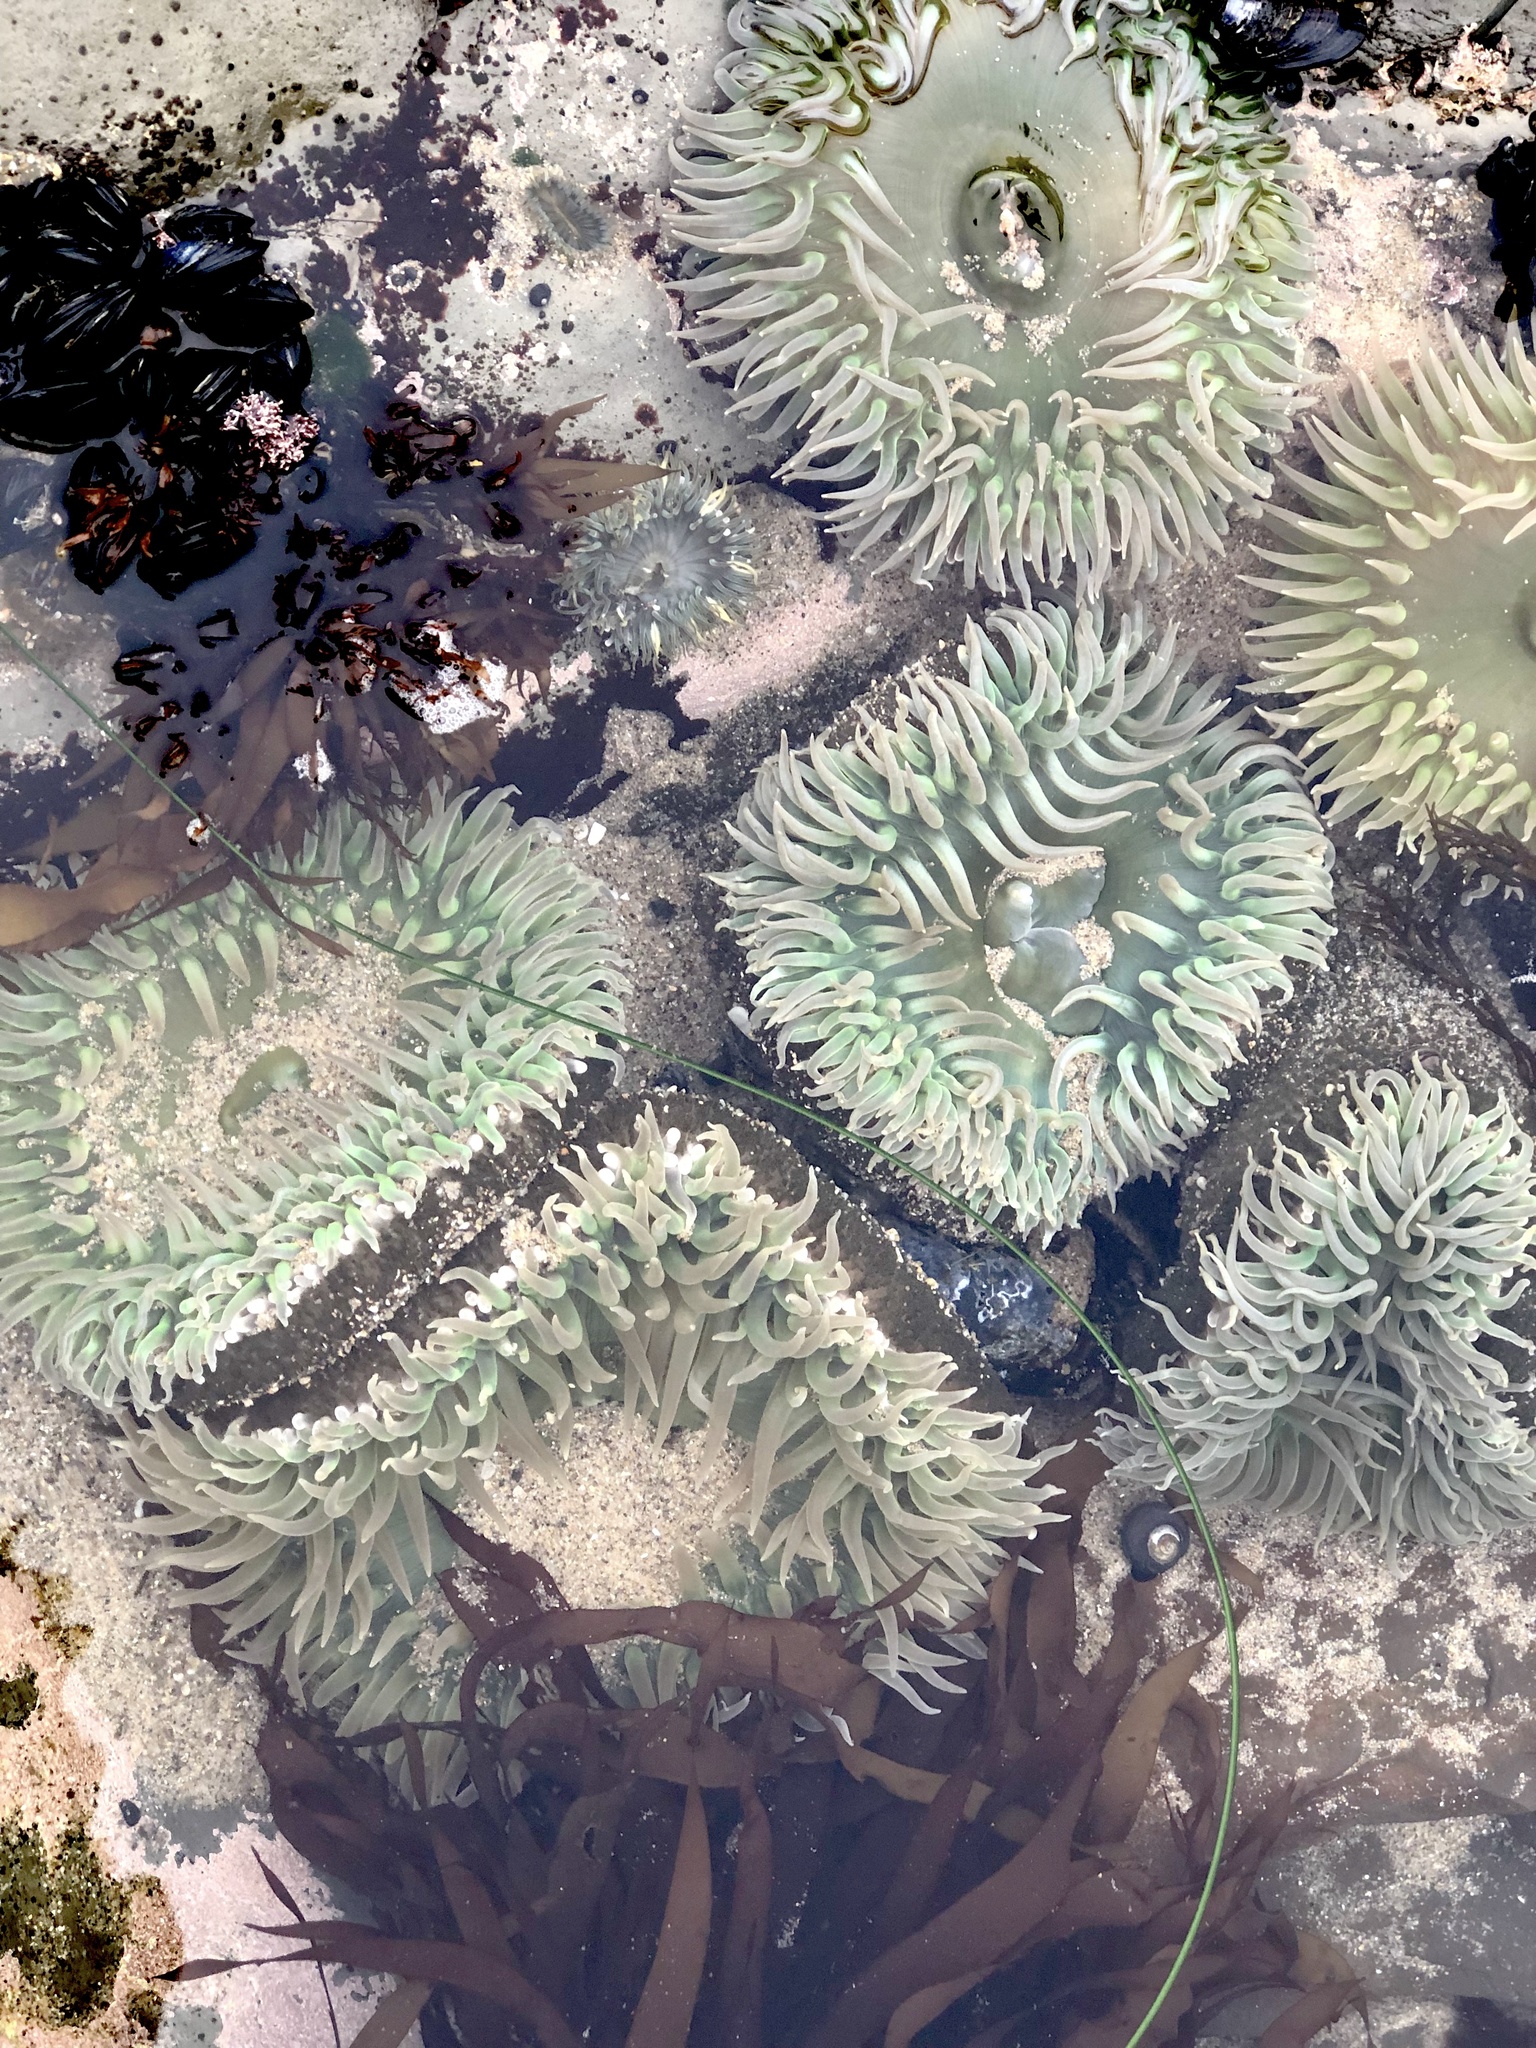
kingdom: Animalia
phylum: Cnidaria
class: Anthozoa
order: Actiniaria
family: Actiniidae
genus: Anthopleura
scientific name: Anthopleura xanthogrammica
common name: Giant green anemone
